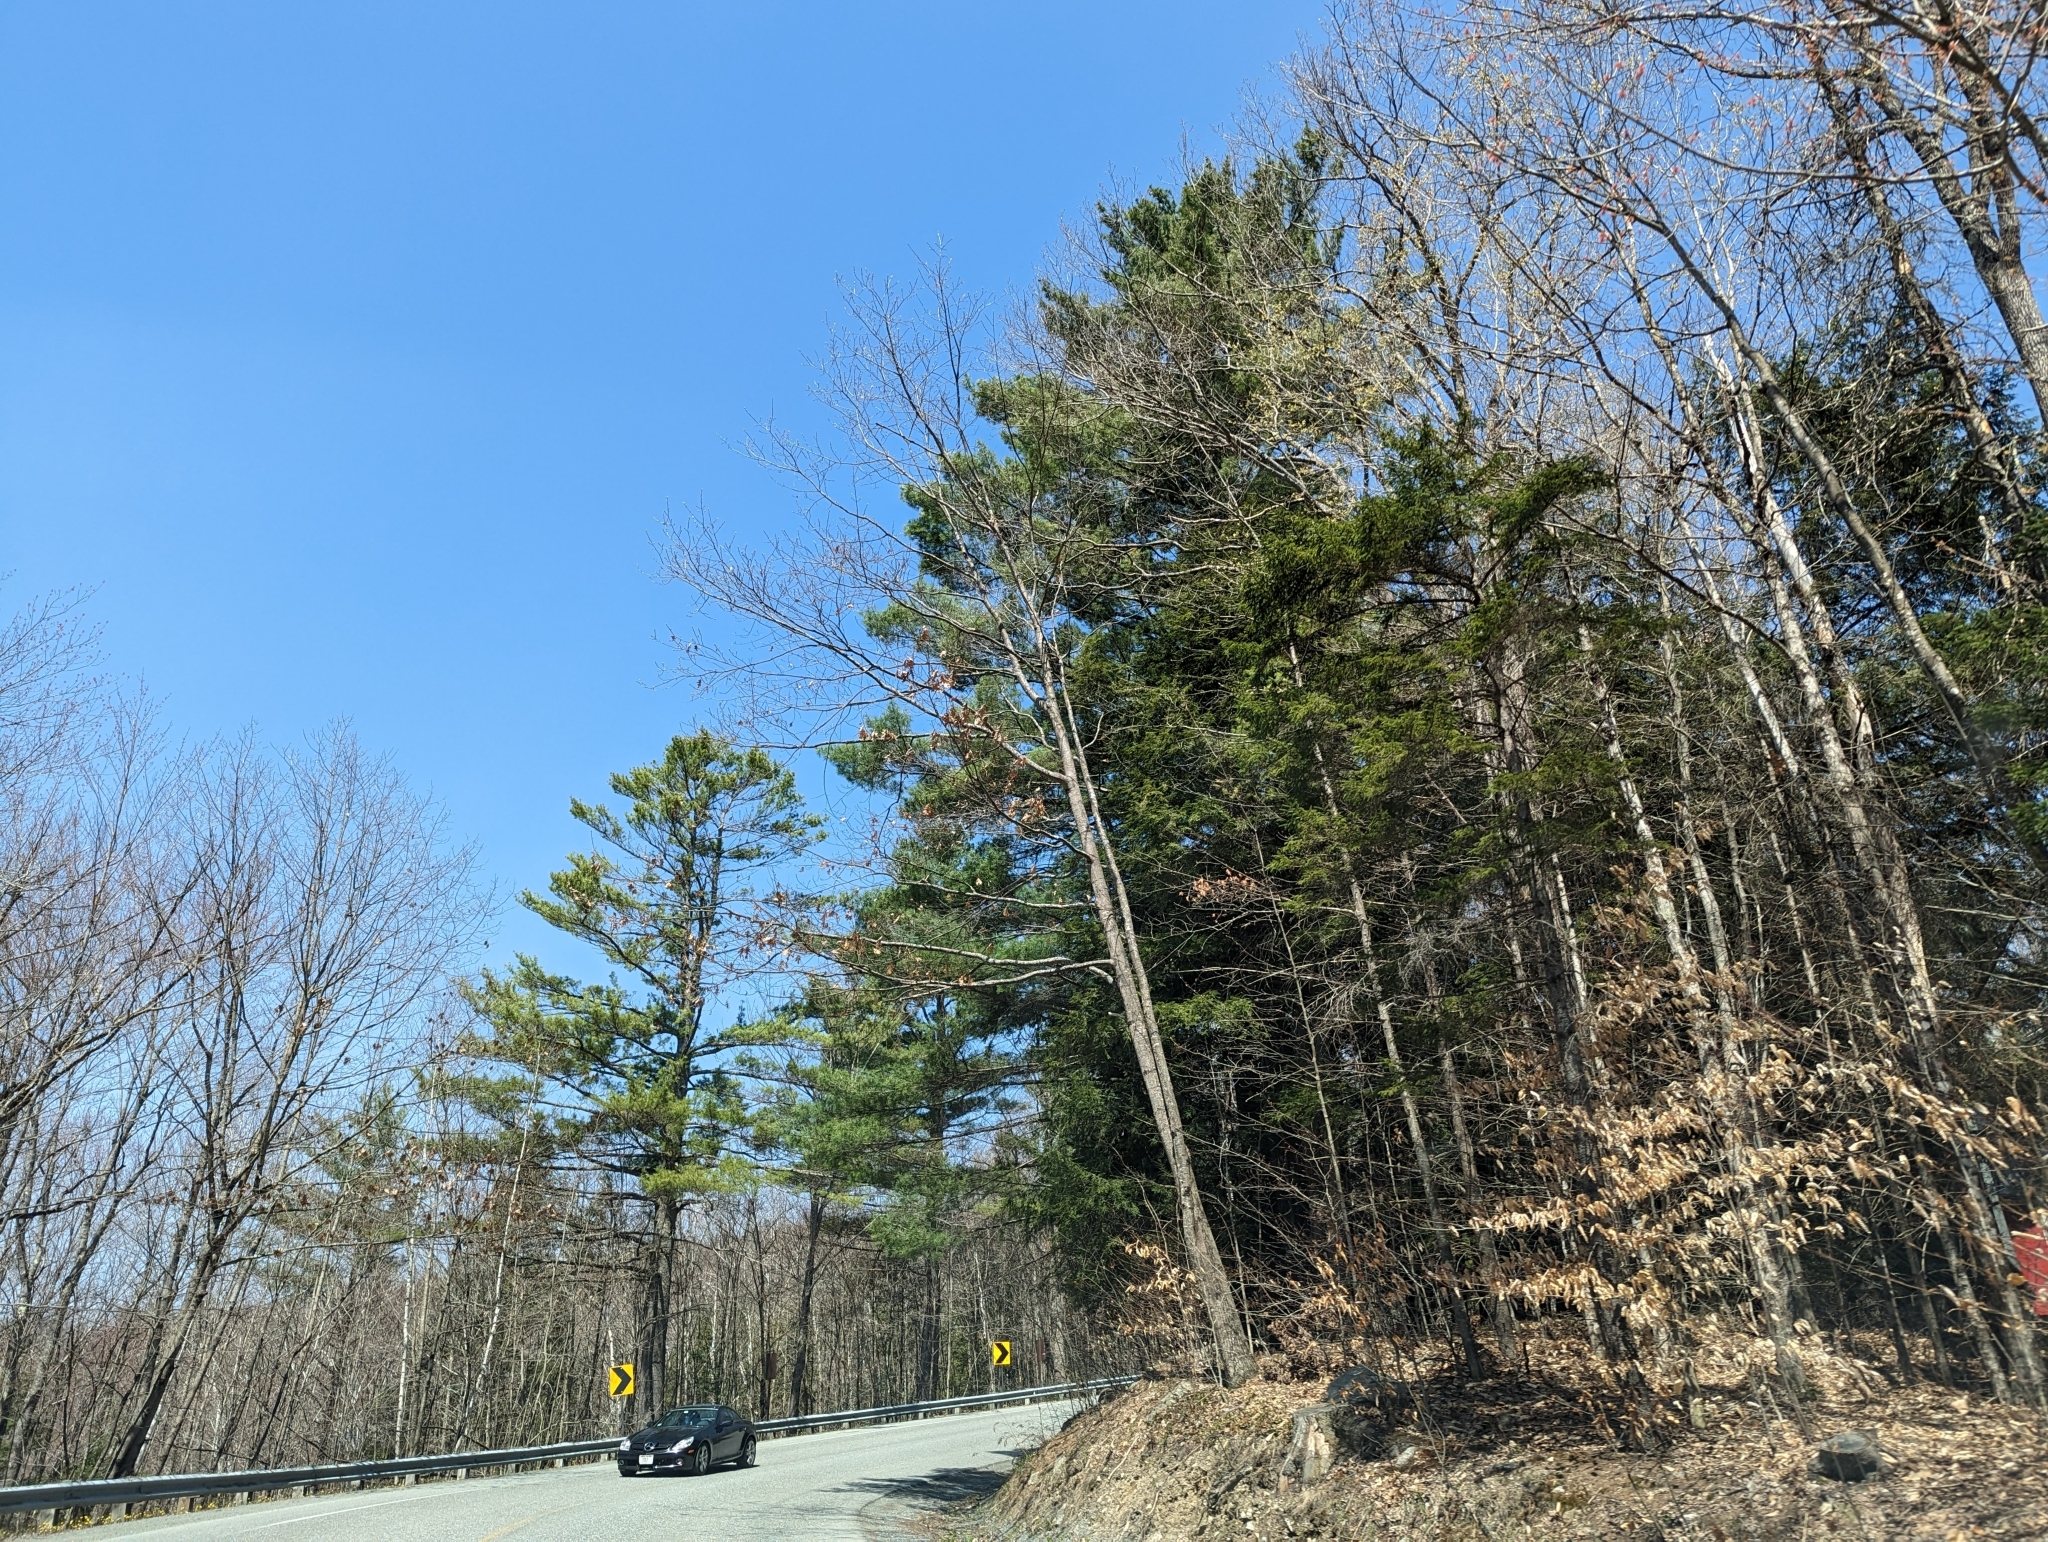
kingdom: Plantae
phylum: Tracheophyta
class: Pinopsida
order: Pinales
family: Pinaceae
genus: Pinus
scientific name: Pinus strobus
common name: Weymouth pine
